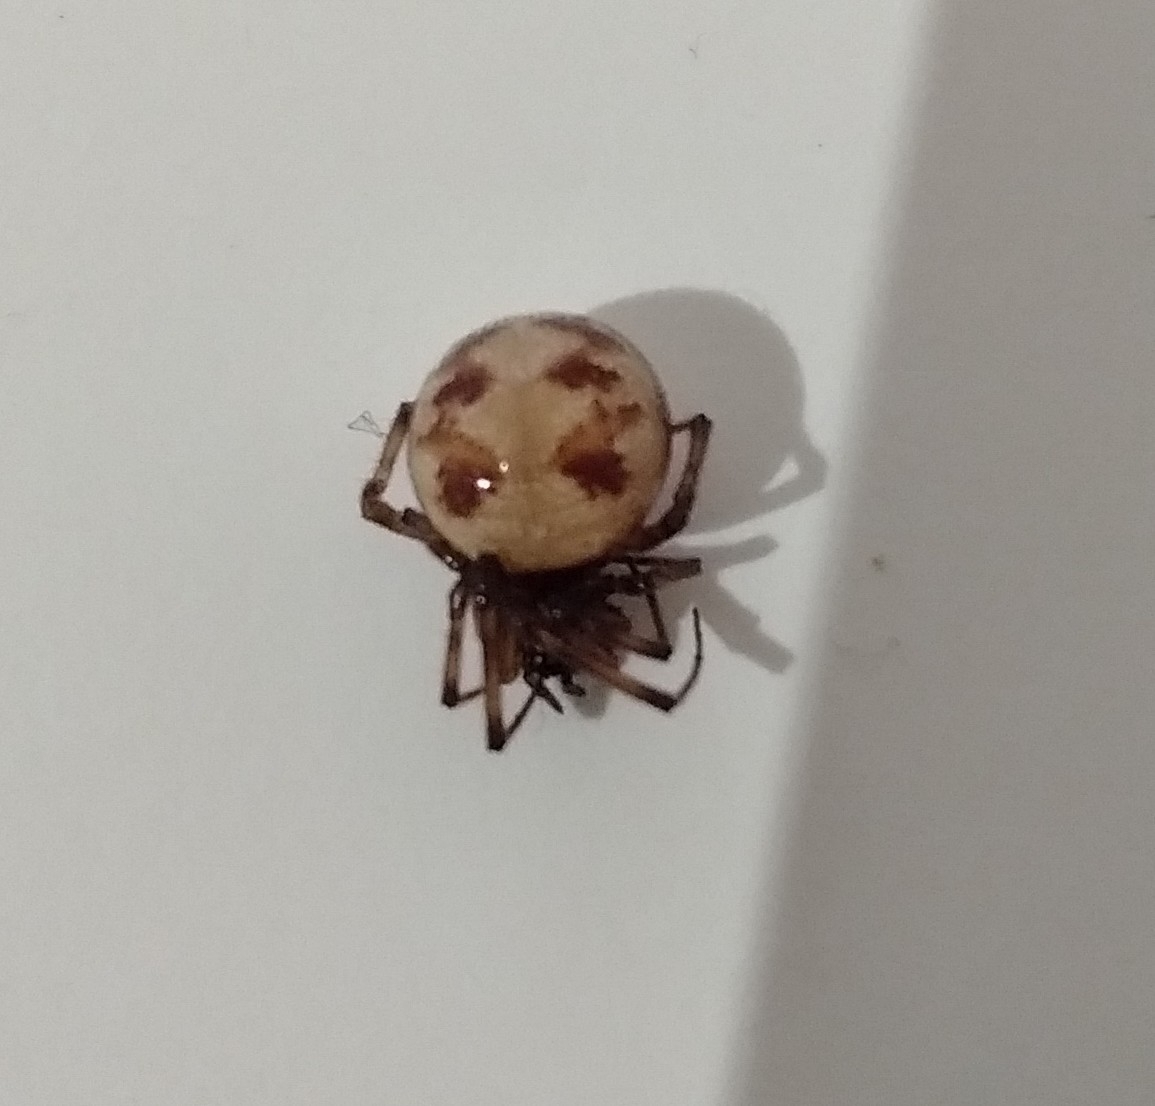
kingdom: Animalia
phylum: Arthropoda
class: Arachnida
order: Araneae
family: Theridiidae
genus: Steatoda
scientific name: Steatoda triangulosa
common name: Triangulate bud spider
